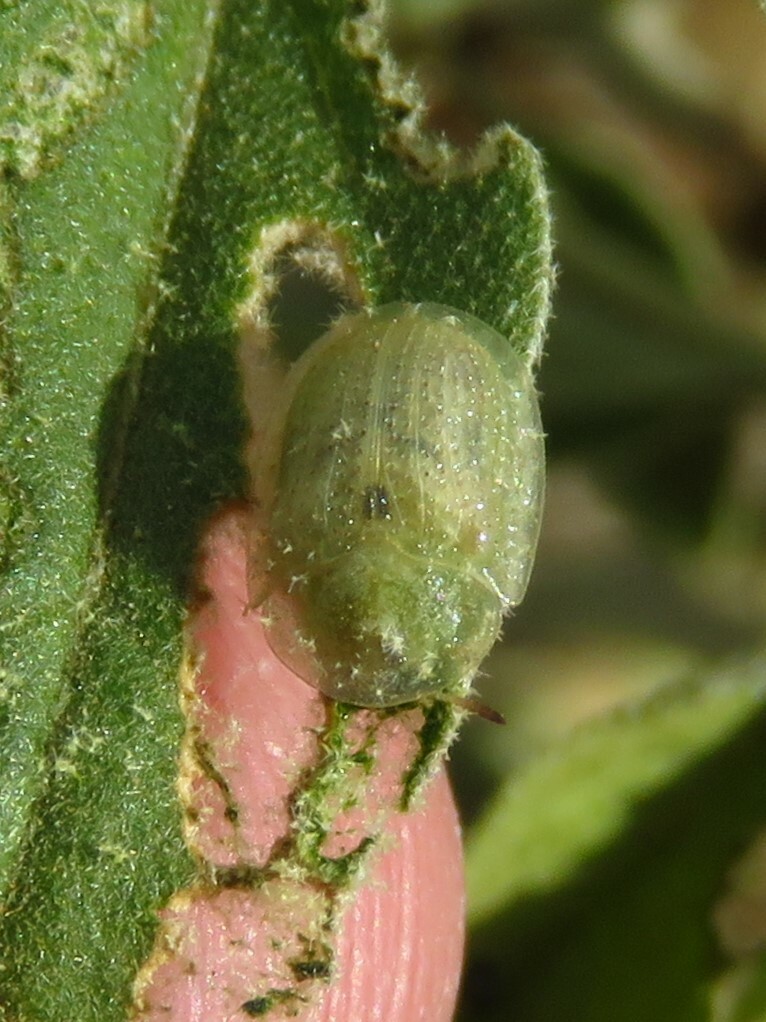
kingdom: Animalia
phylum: Arthropoda
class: Insecta
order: Coleoptera
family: Chrysomelidae
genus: Gratiana
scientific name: Gratiana pallidula
